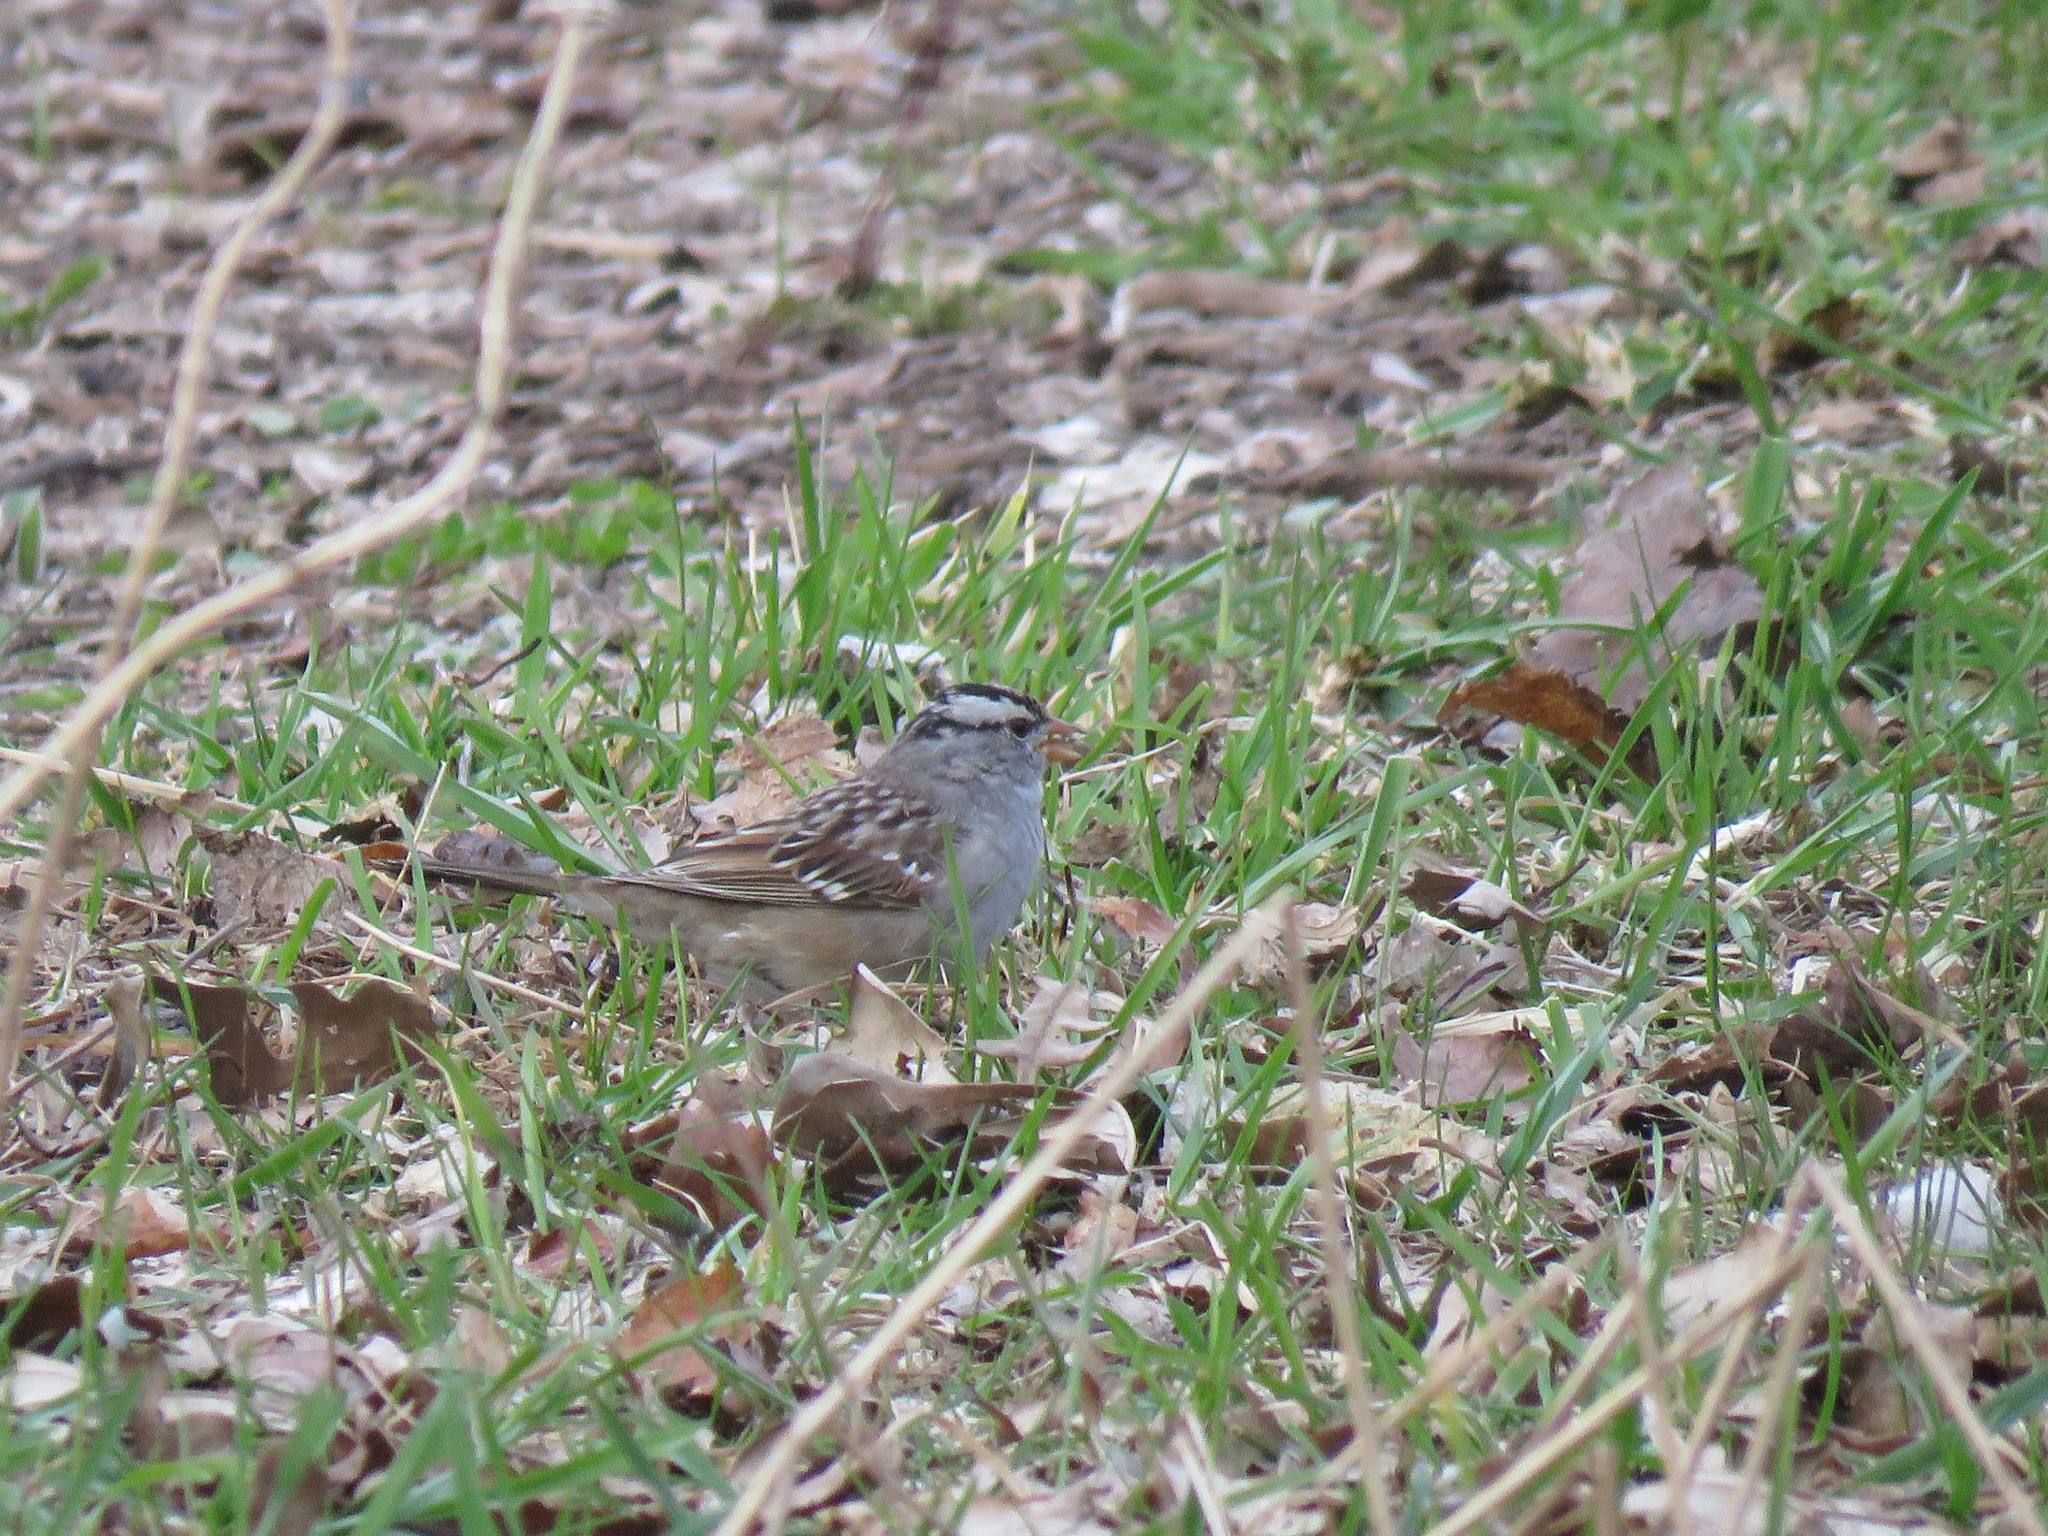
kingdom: Animalia
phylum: Chordata
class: Aves
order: Passeriformes
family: Passerellidae
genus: Zonotrichia
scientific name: Zonotrichia leucophrys
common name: White-crowned sparrow
